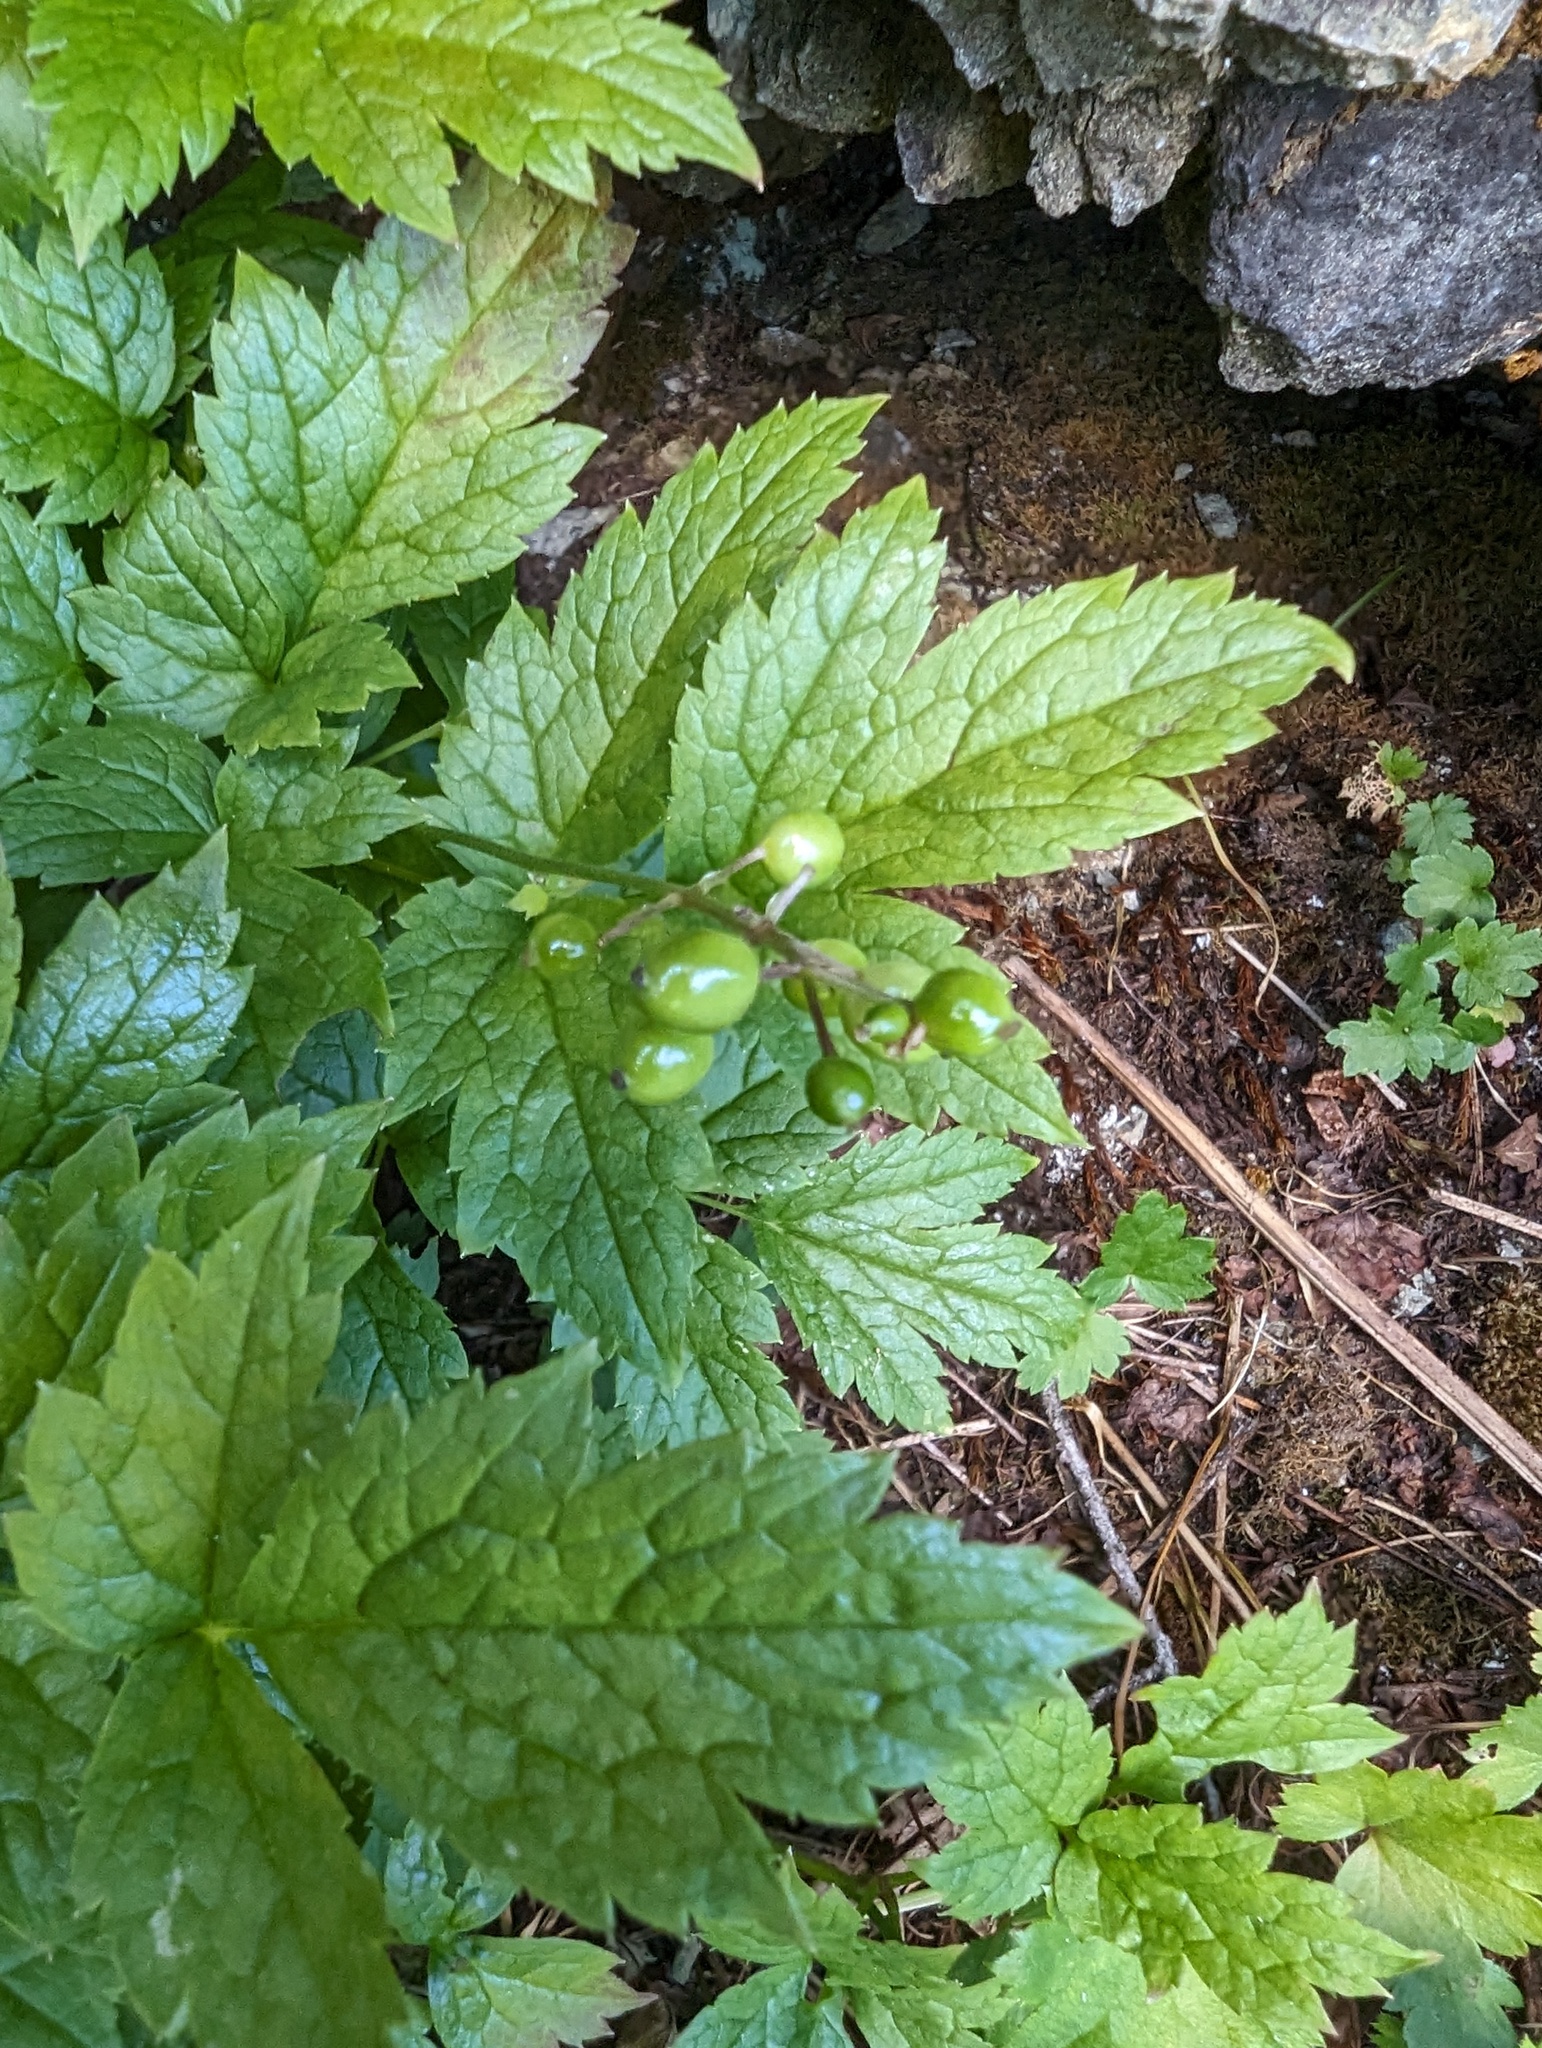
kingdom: Plantae
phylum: Tracheophyta
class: Magnoliopsida
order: Ranunculales
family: Ranunculaceae
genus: Actaea
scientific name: Actaea rubra
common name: Red baneberry
